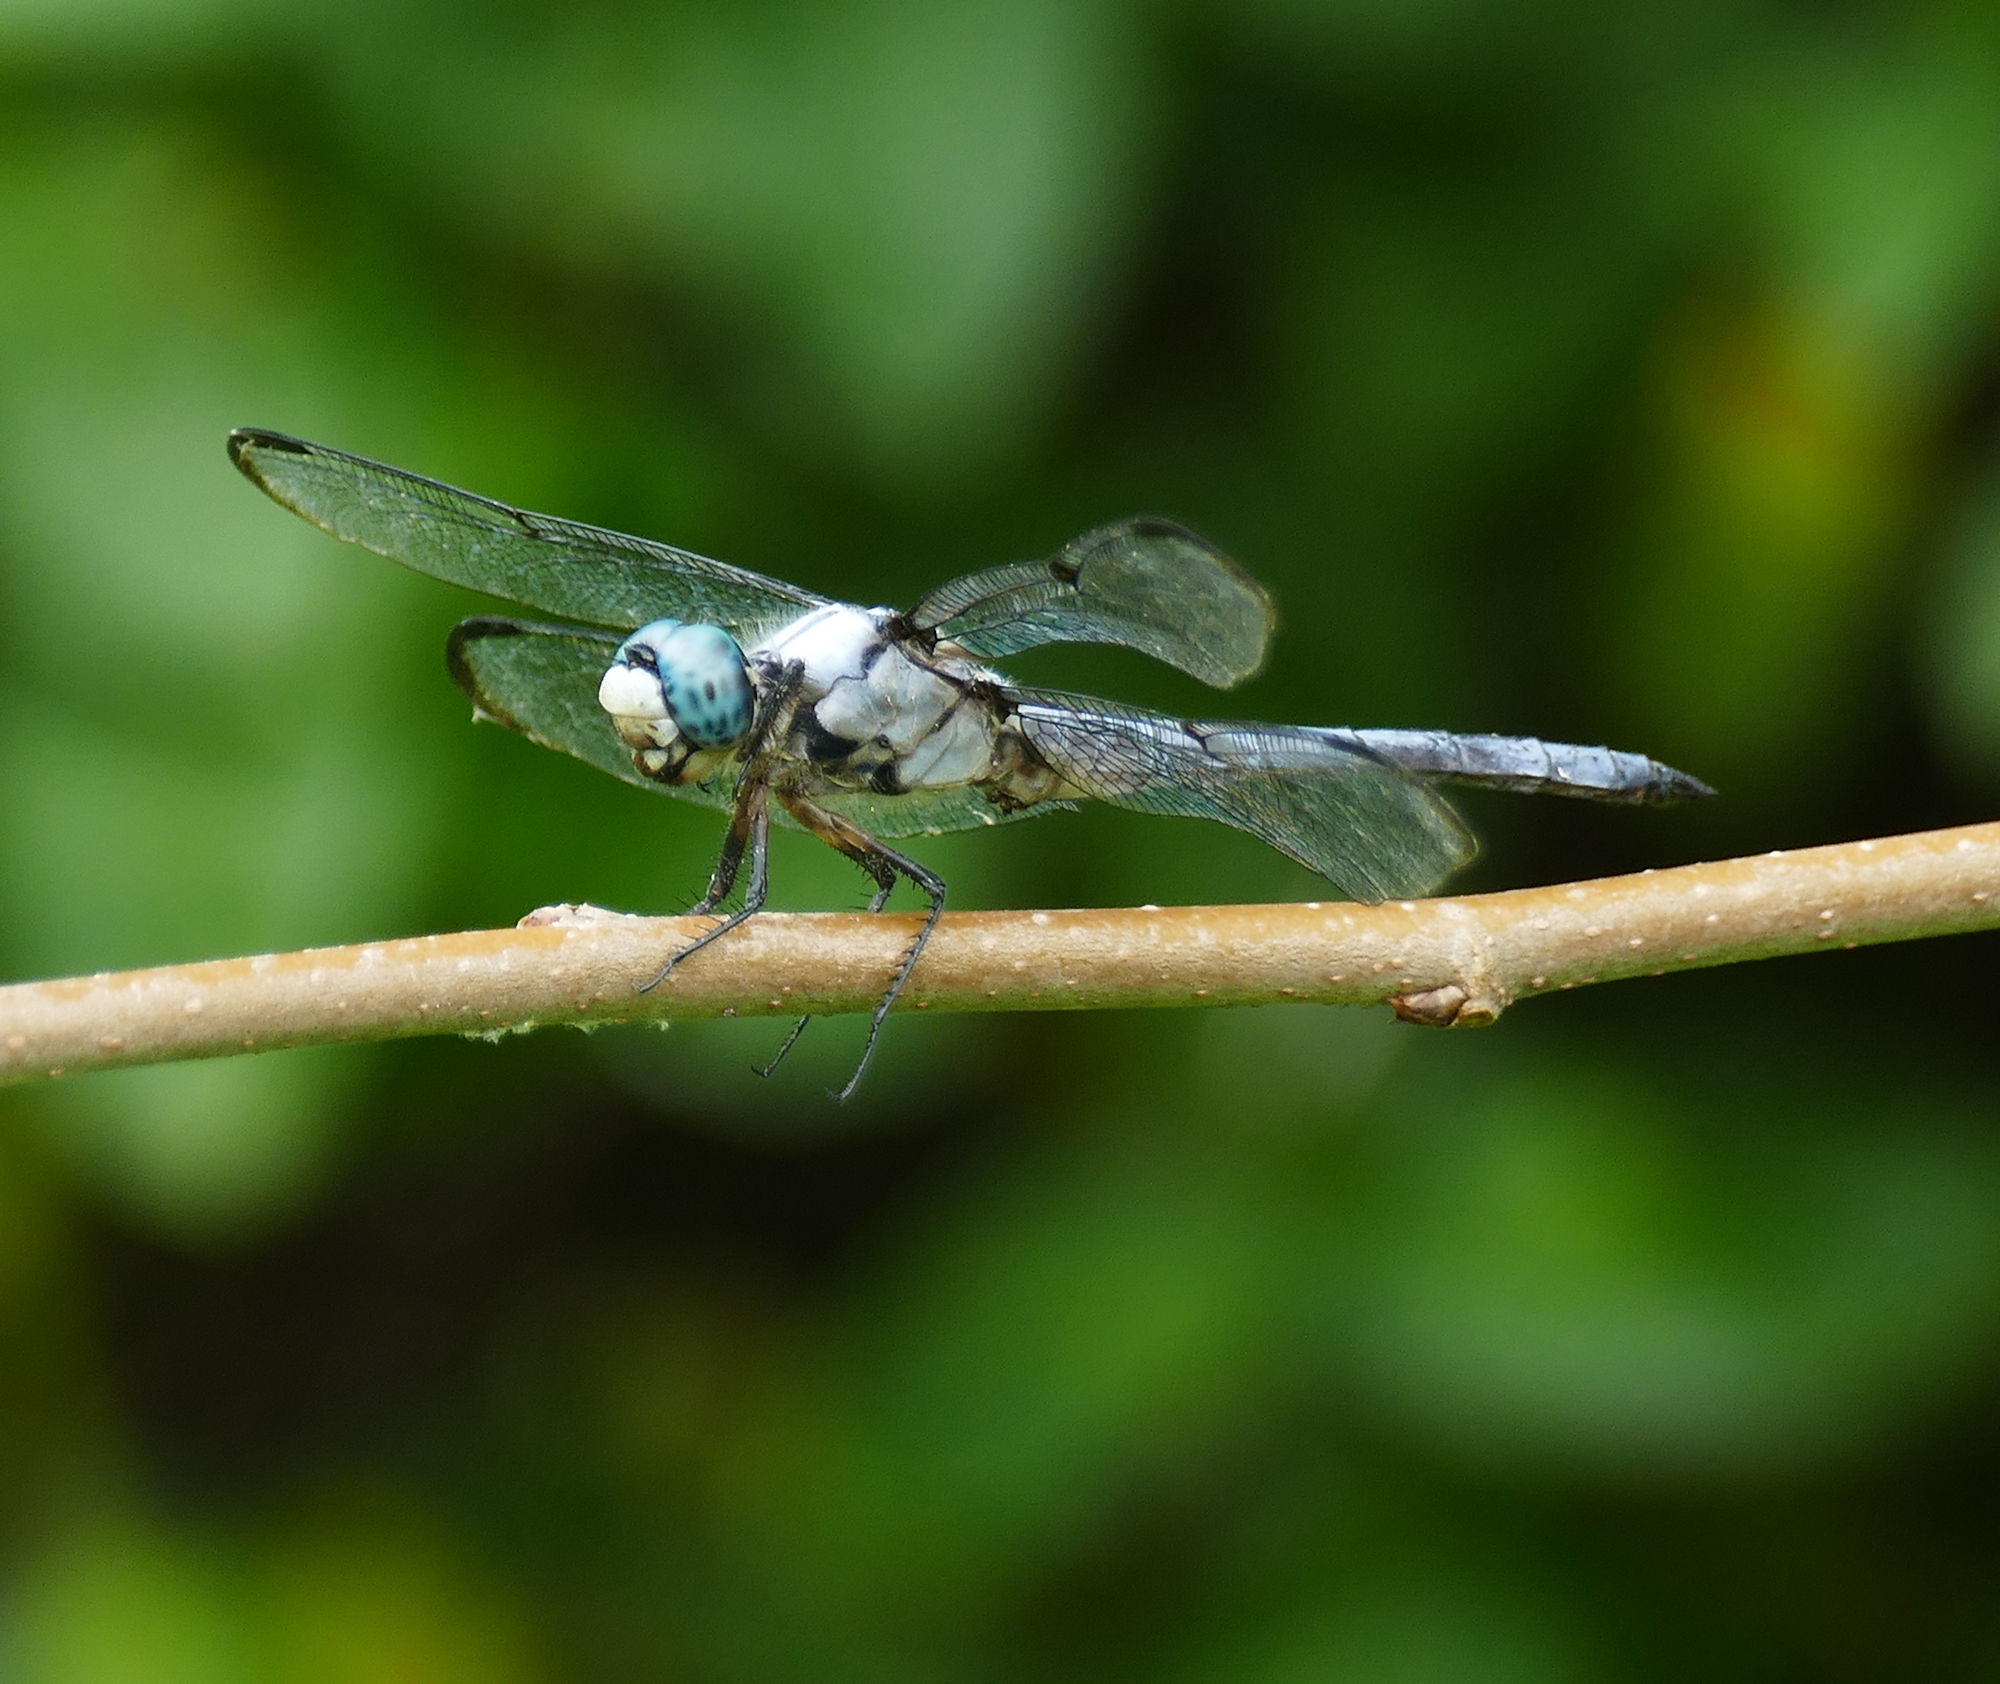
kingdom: Animalia
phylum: Arthropoda
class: Insecta
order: Odonata
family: Libellulidae
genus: Libellula
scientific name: Libellula vibrans
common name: Great blue skimmer
